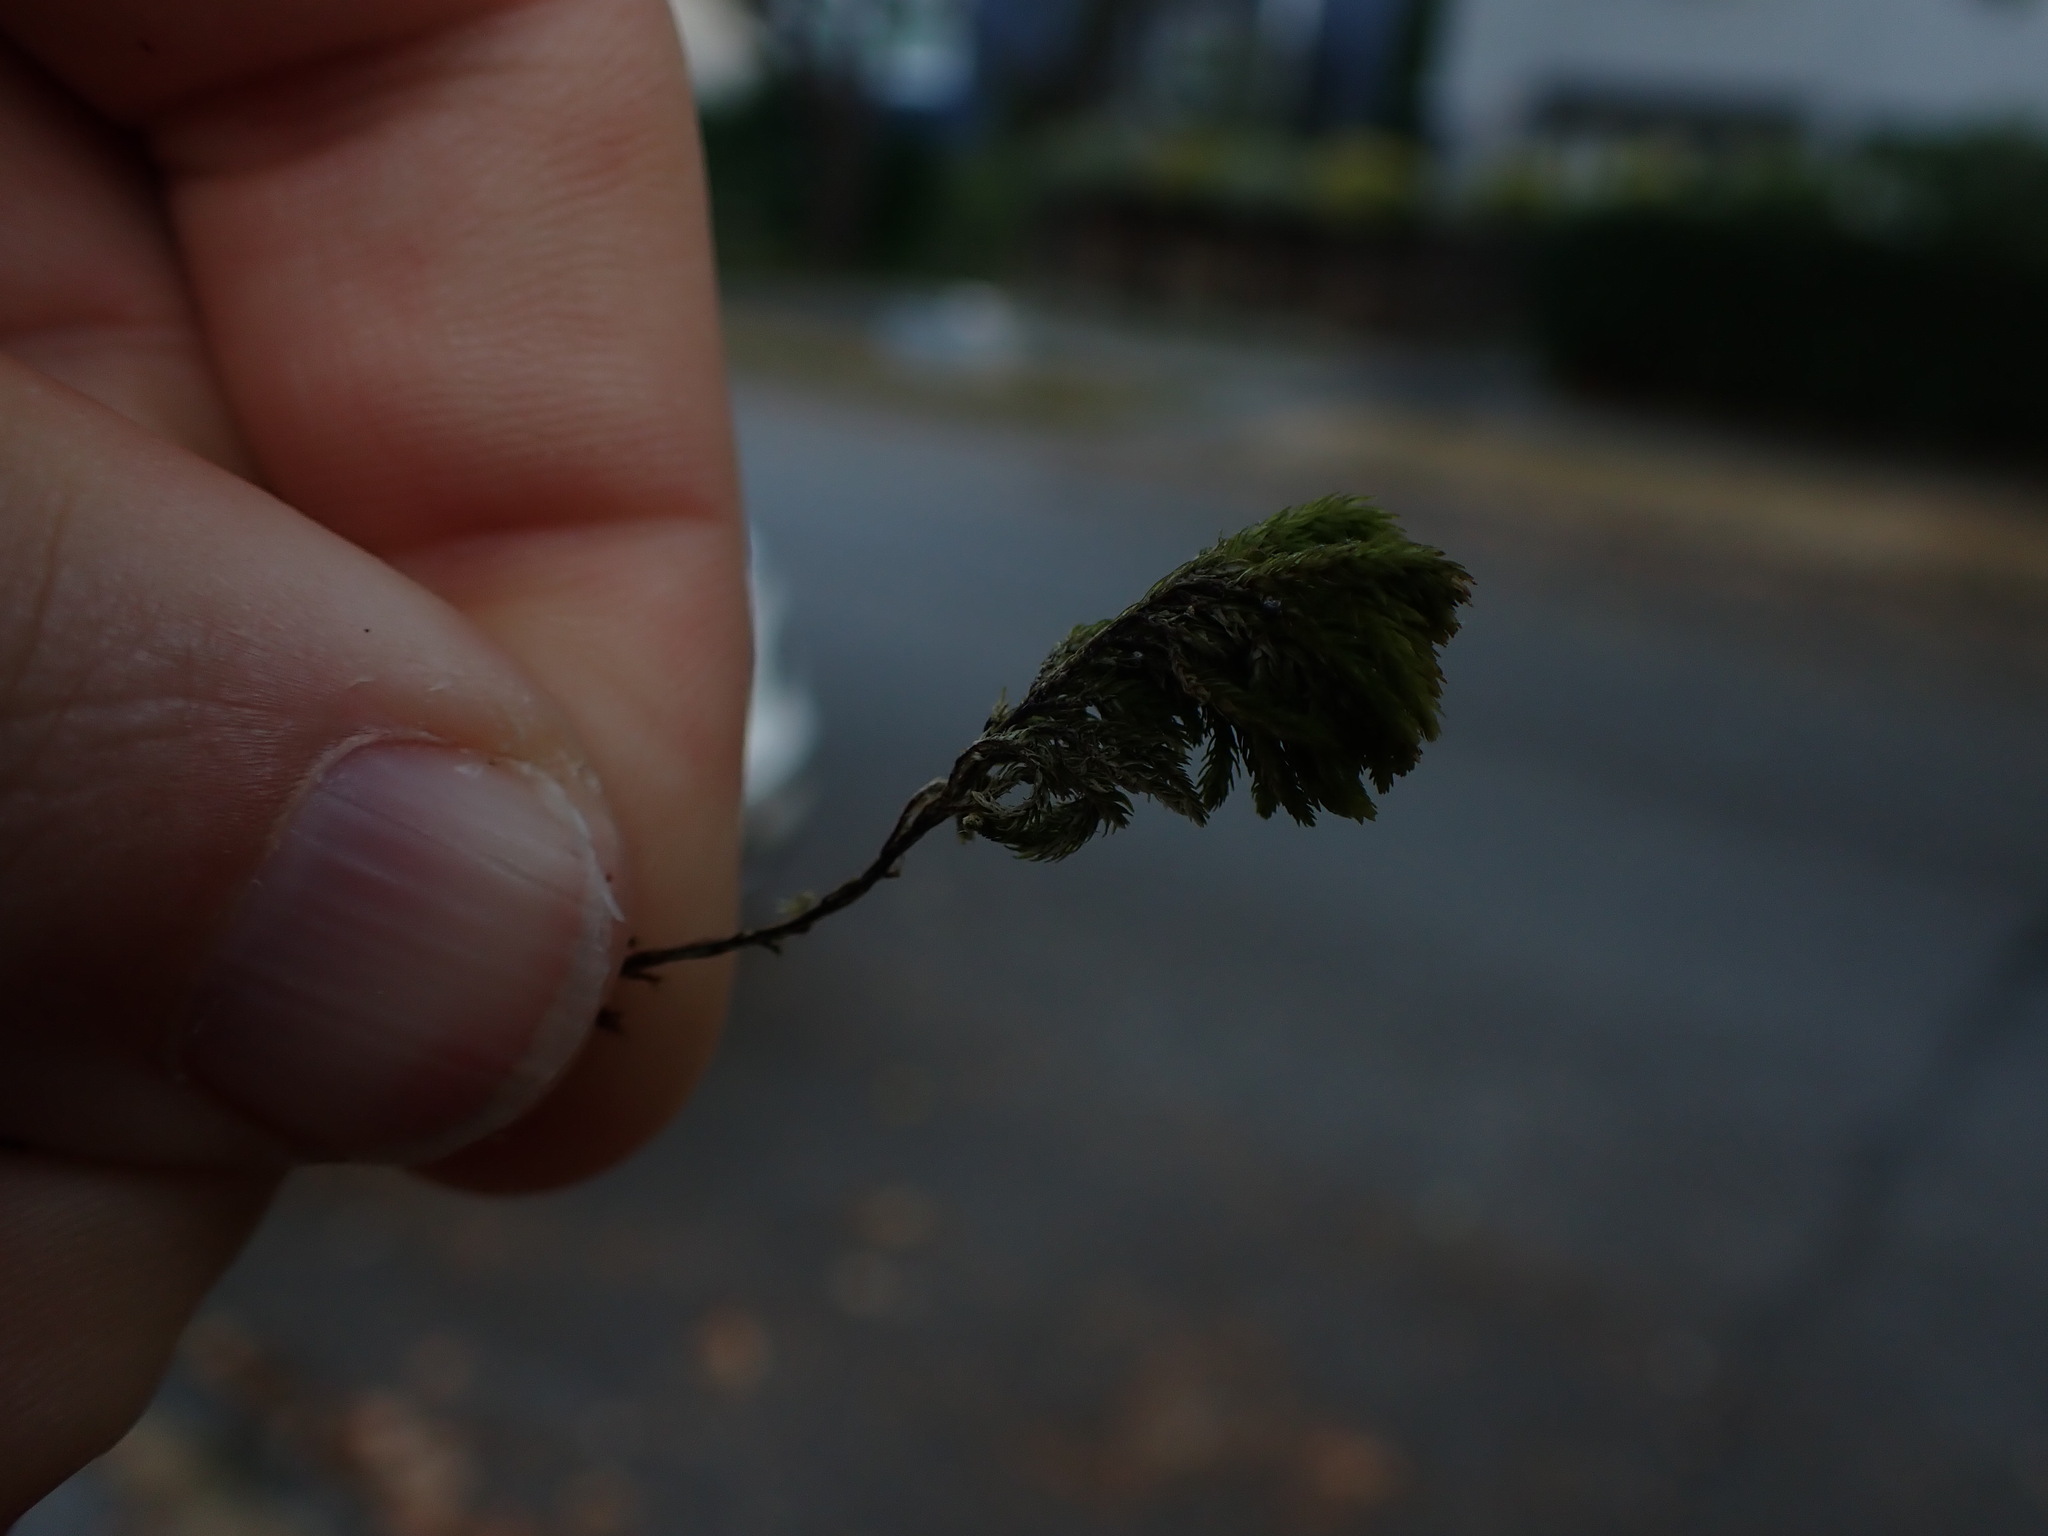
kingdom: Plantae
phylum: Bryophyta
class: Bryopsida
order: Hypnales
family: Cryphaeaceae
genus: Dendroalsia
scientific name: Dendroalsia abietina
